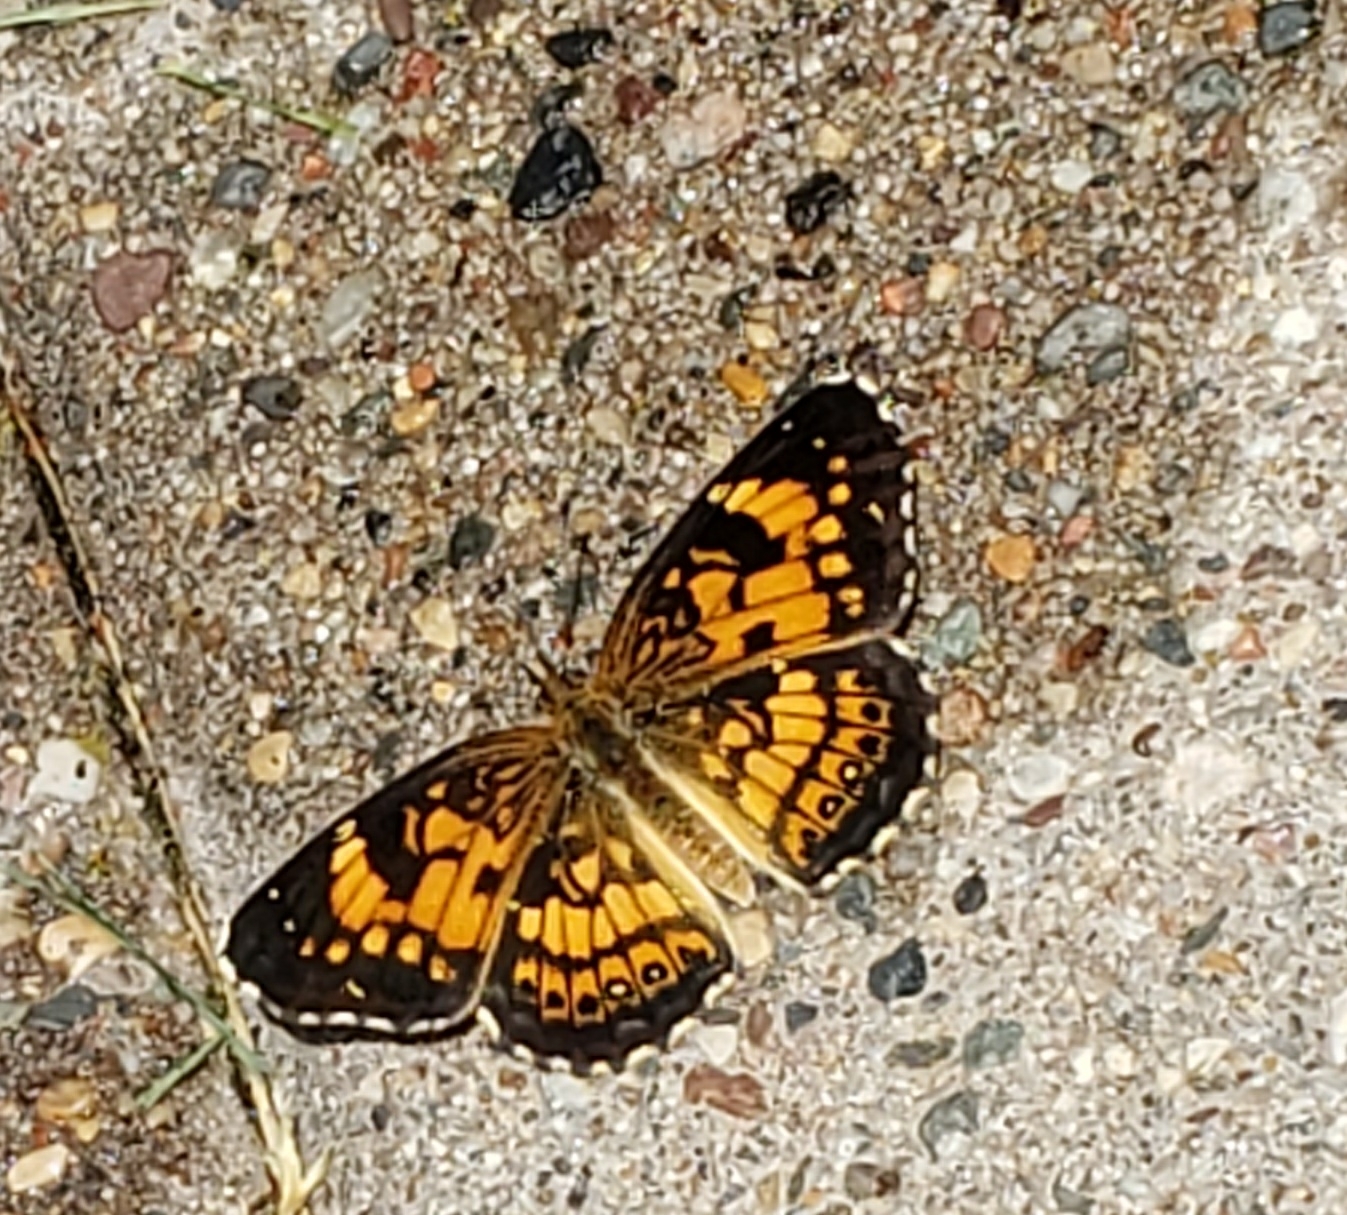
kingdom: Animalia
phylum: Arthropoda
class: Insecta
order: Lepidoptera
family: Nymphalidae
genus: Chlosyne
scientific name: Chlosyne nycteis
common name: Silvery checkerspot
